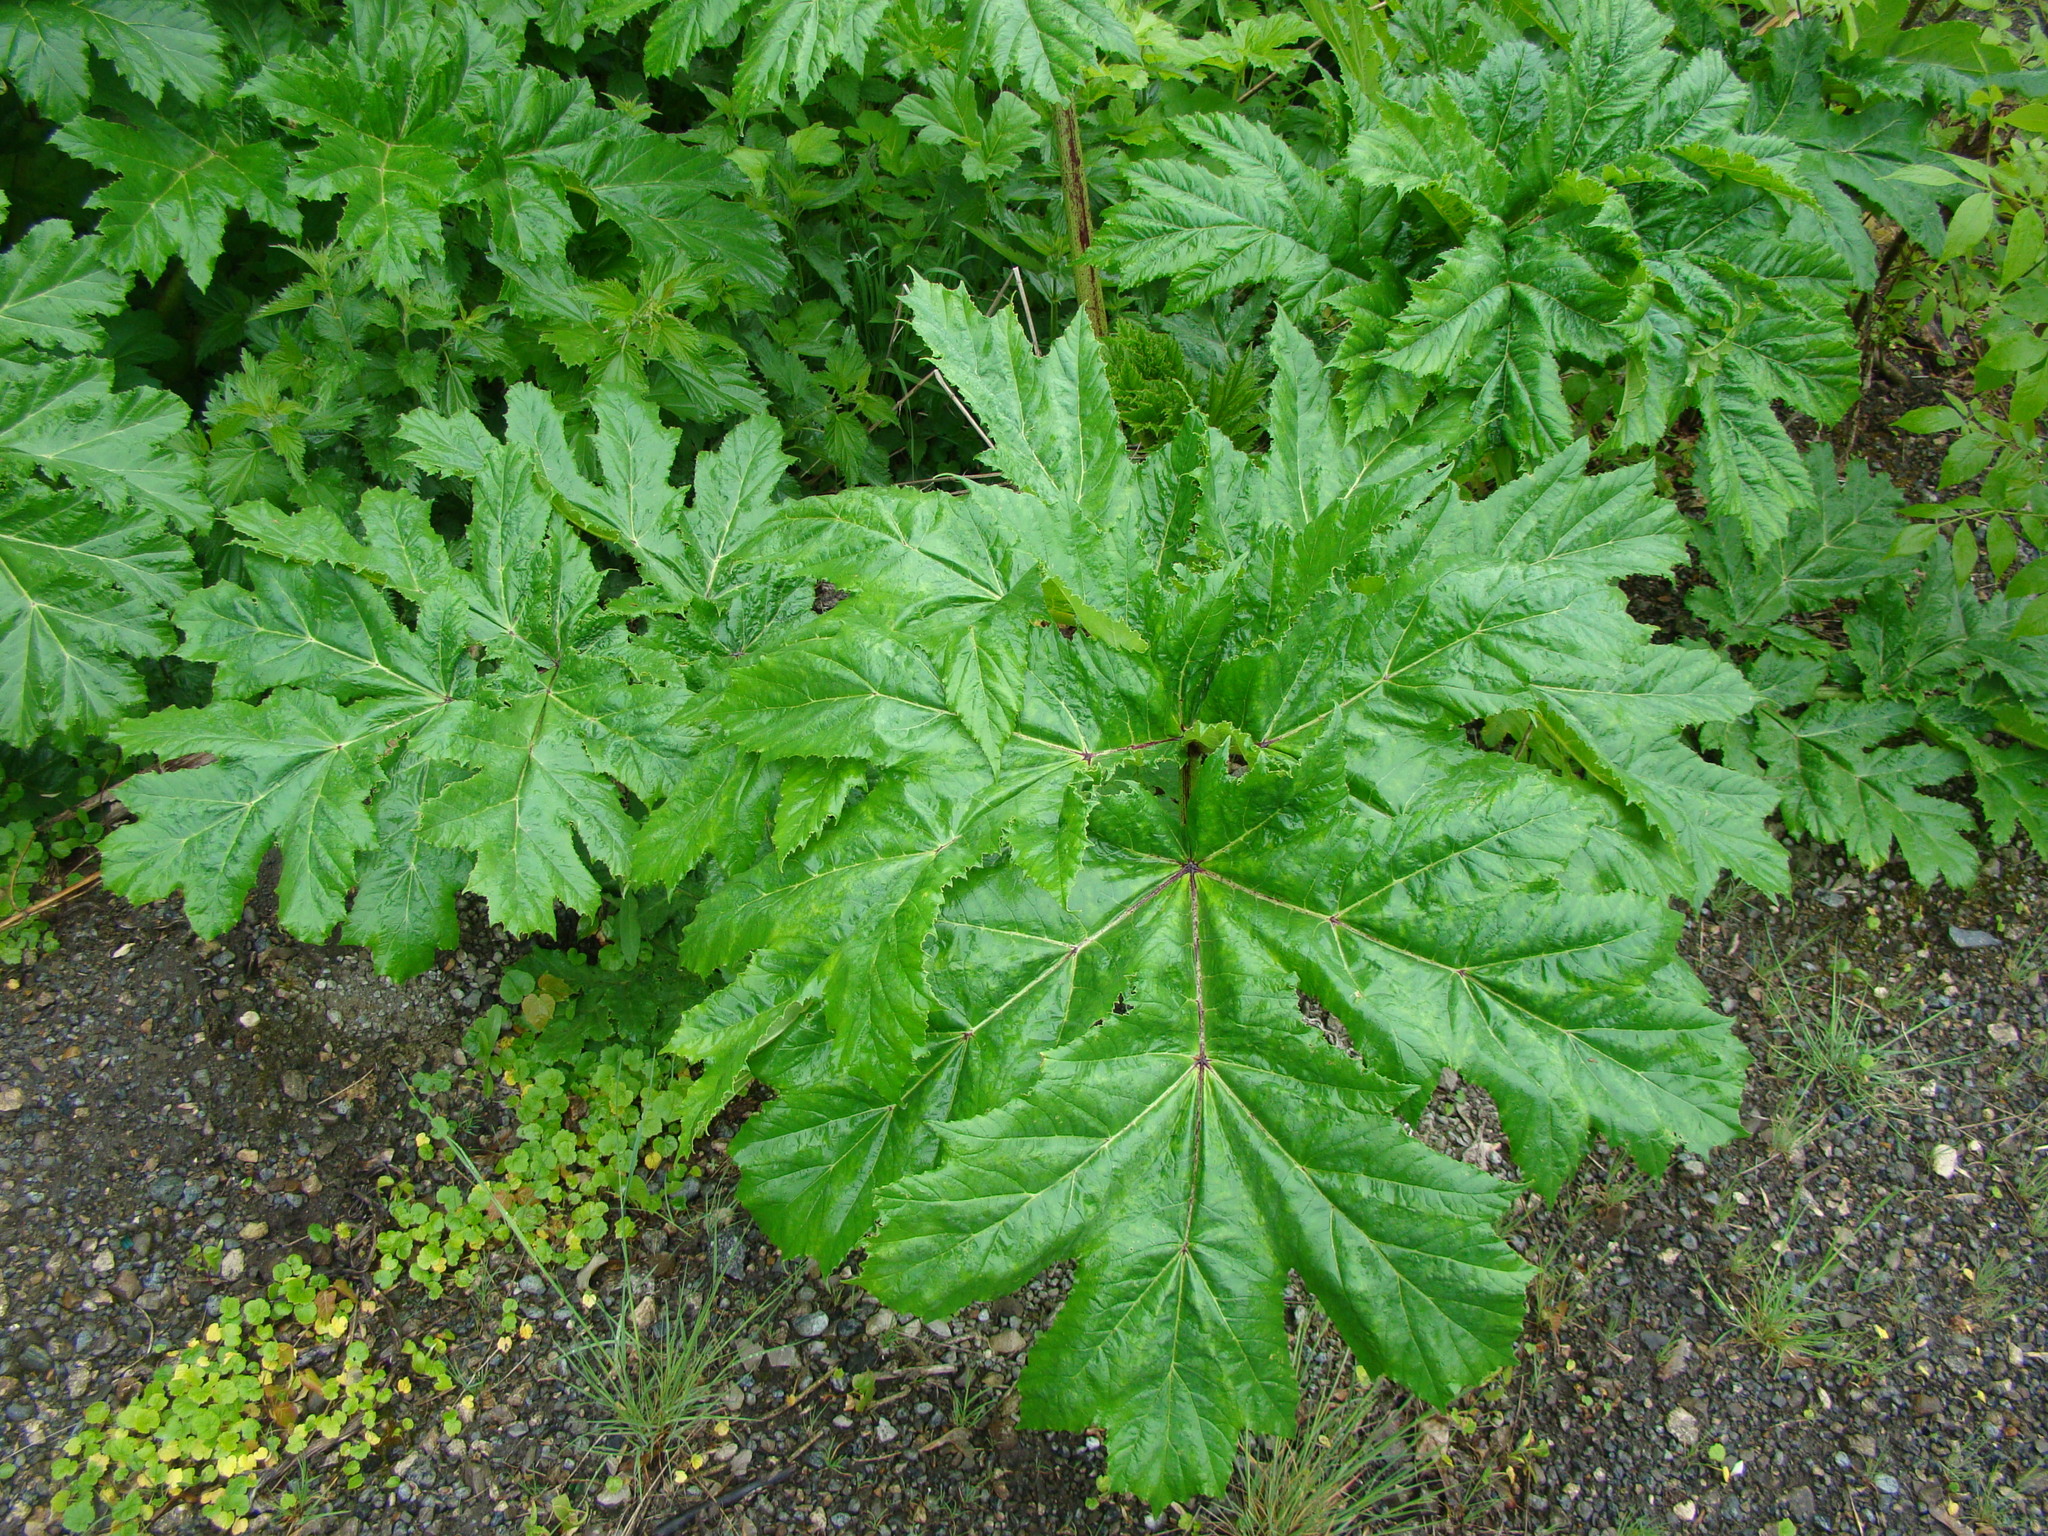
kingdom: Plantae
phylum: Tracheophyta
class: Magnoliopsida
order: Apiales
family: Apiaceae
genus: Heracleum
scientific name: Heracleum sosnowskyi
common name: Sosnowsky's hogweed
